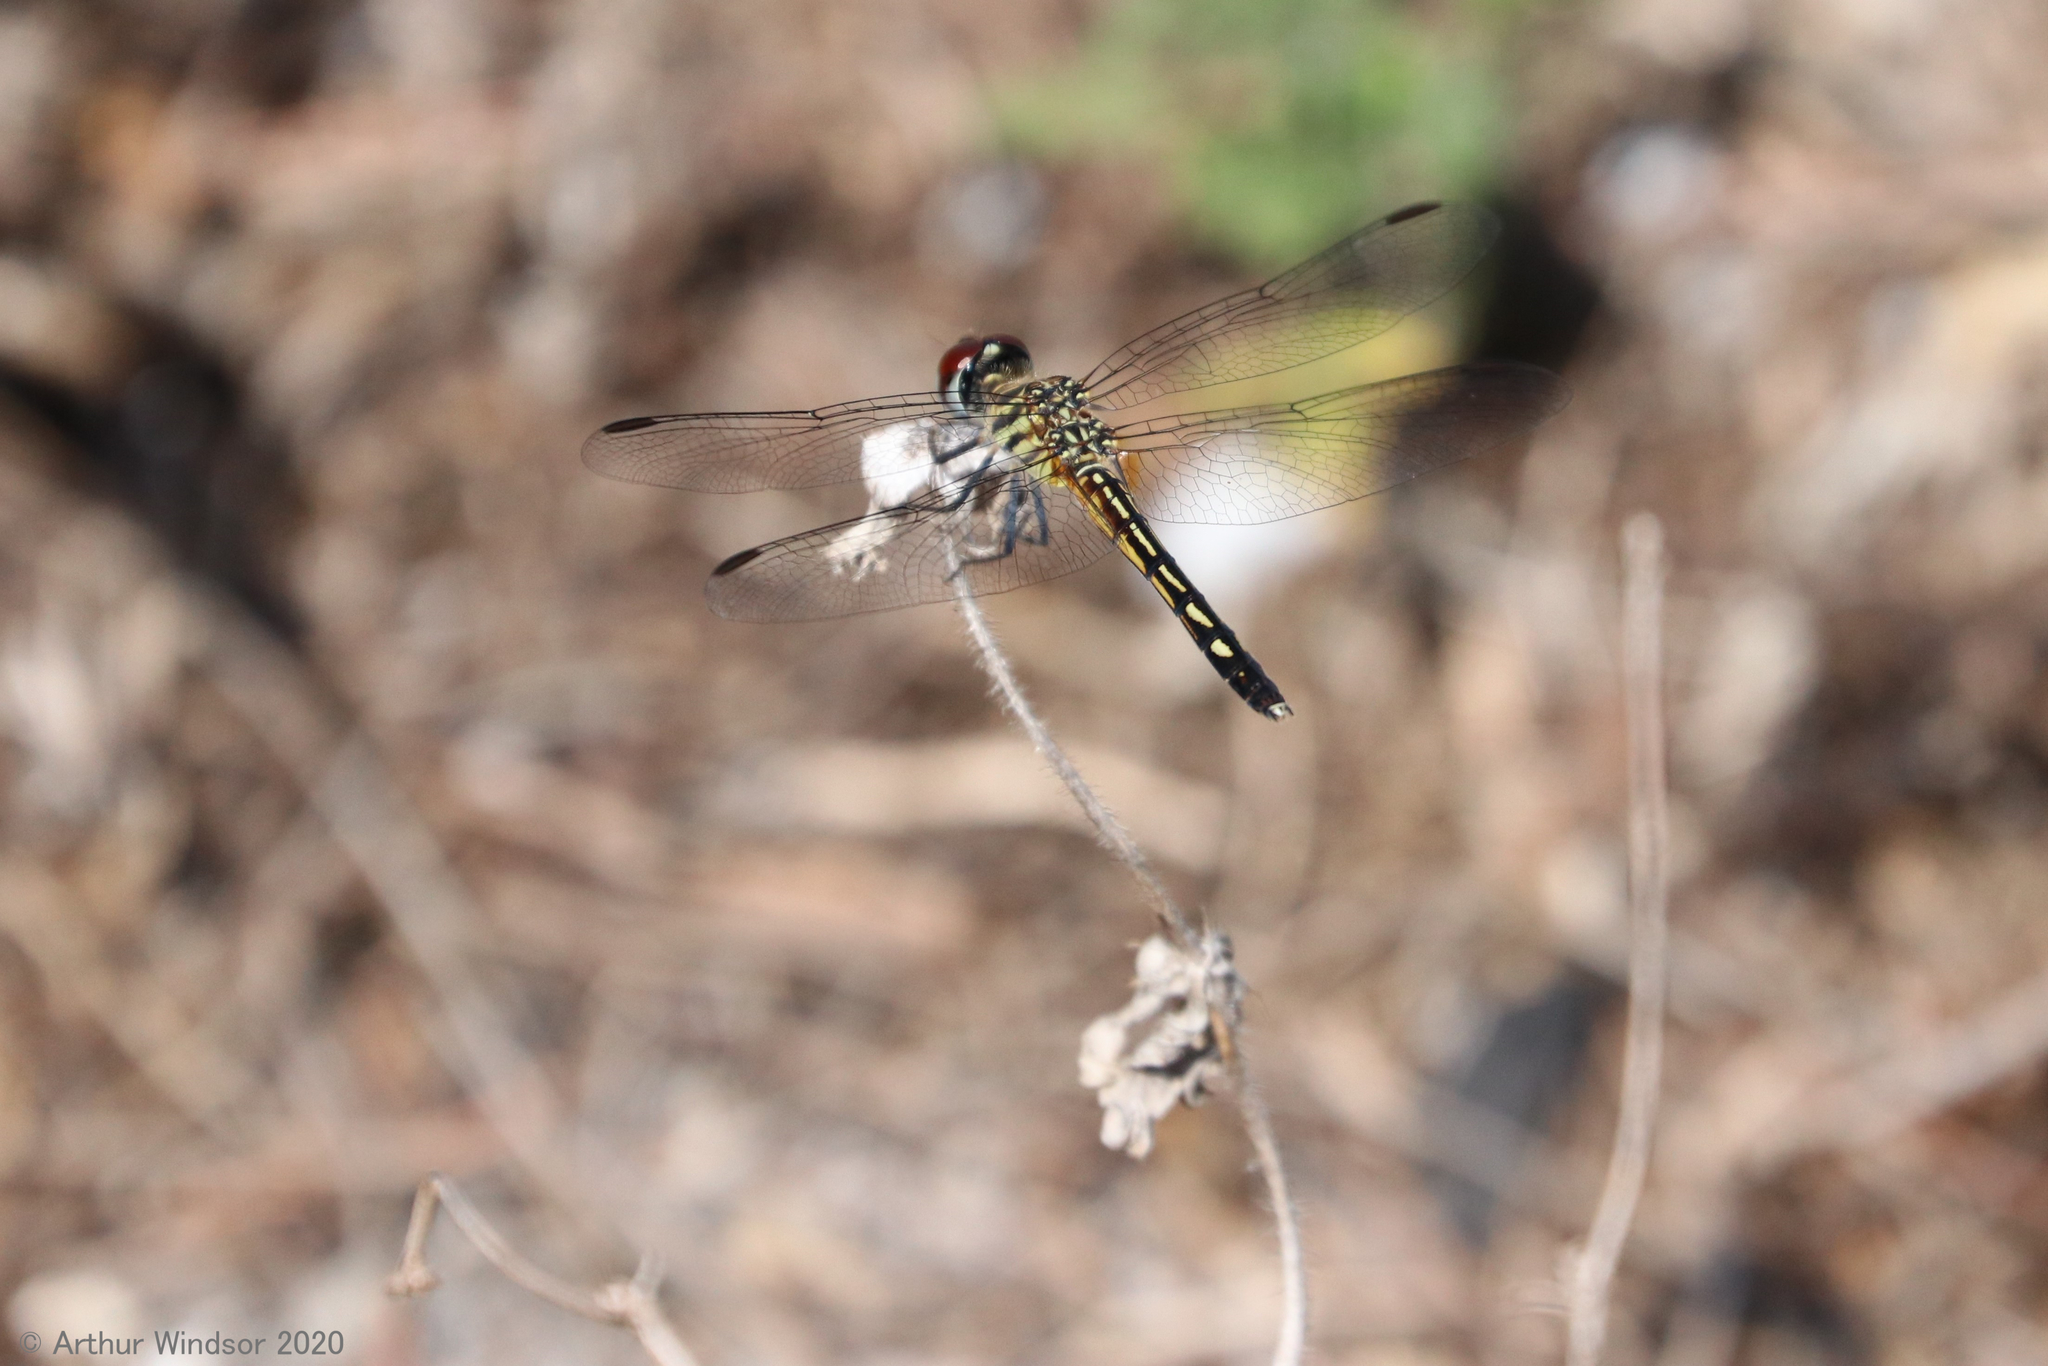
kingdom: Animalia
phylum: Arthropoda
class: Insecta
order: Odonata
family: Libellulidae
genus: Pachydiplax
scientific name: Pachydiplax longipennis
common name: Blue dasher
